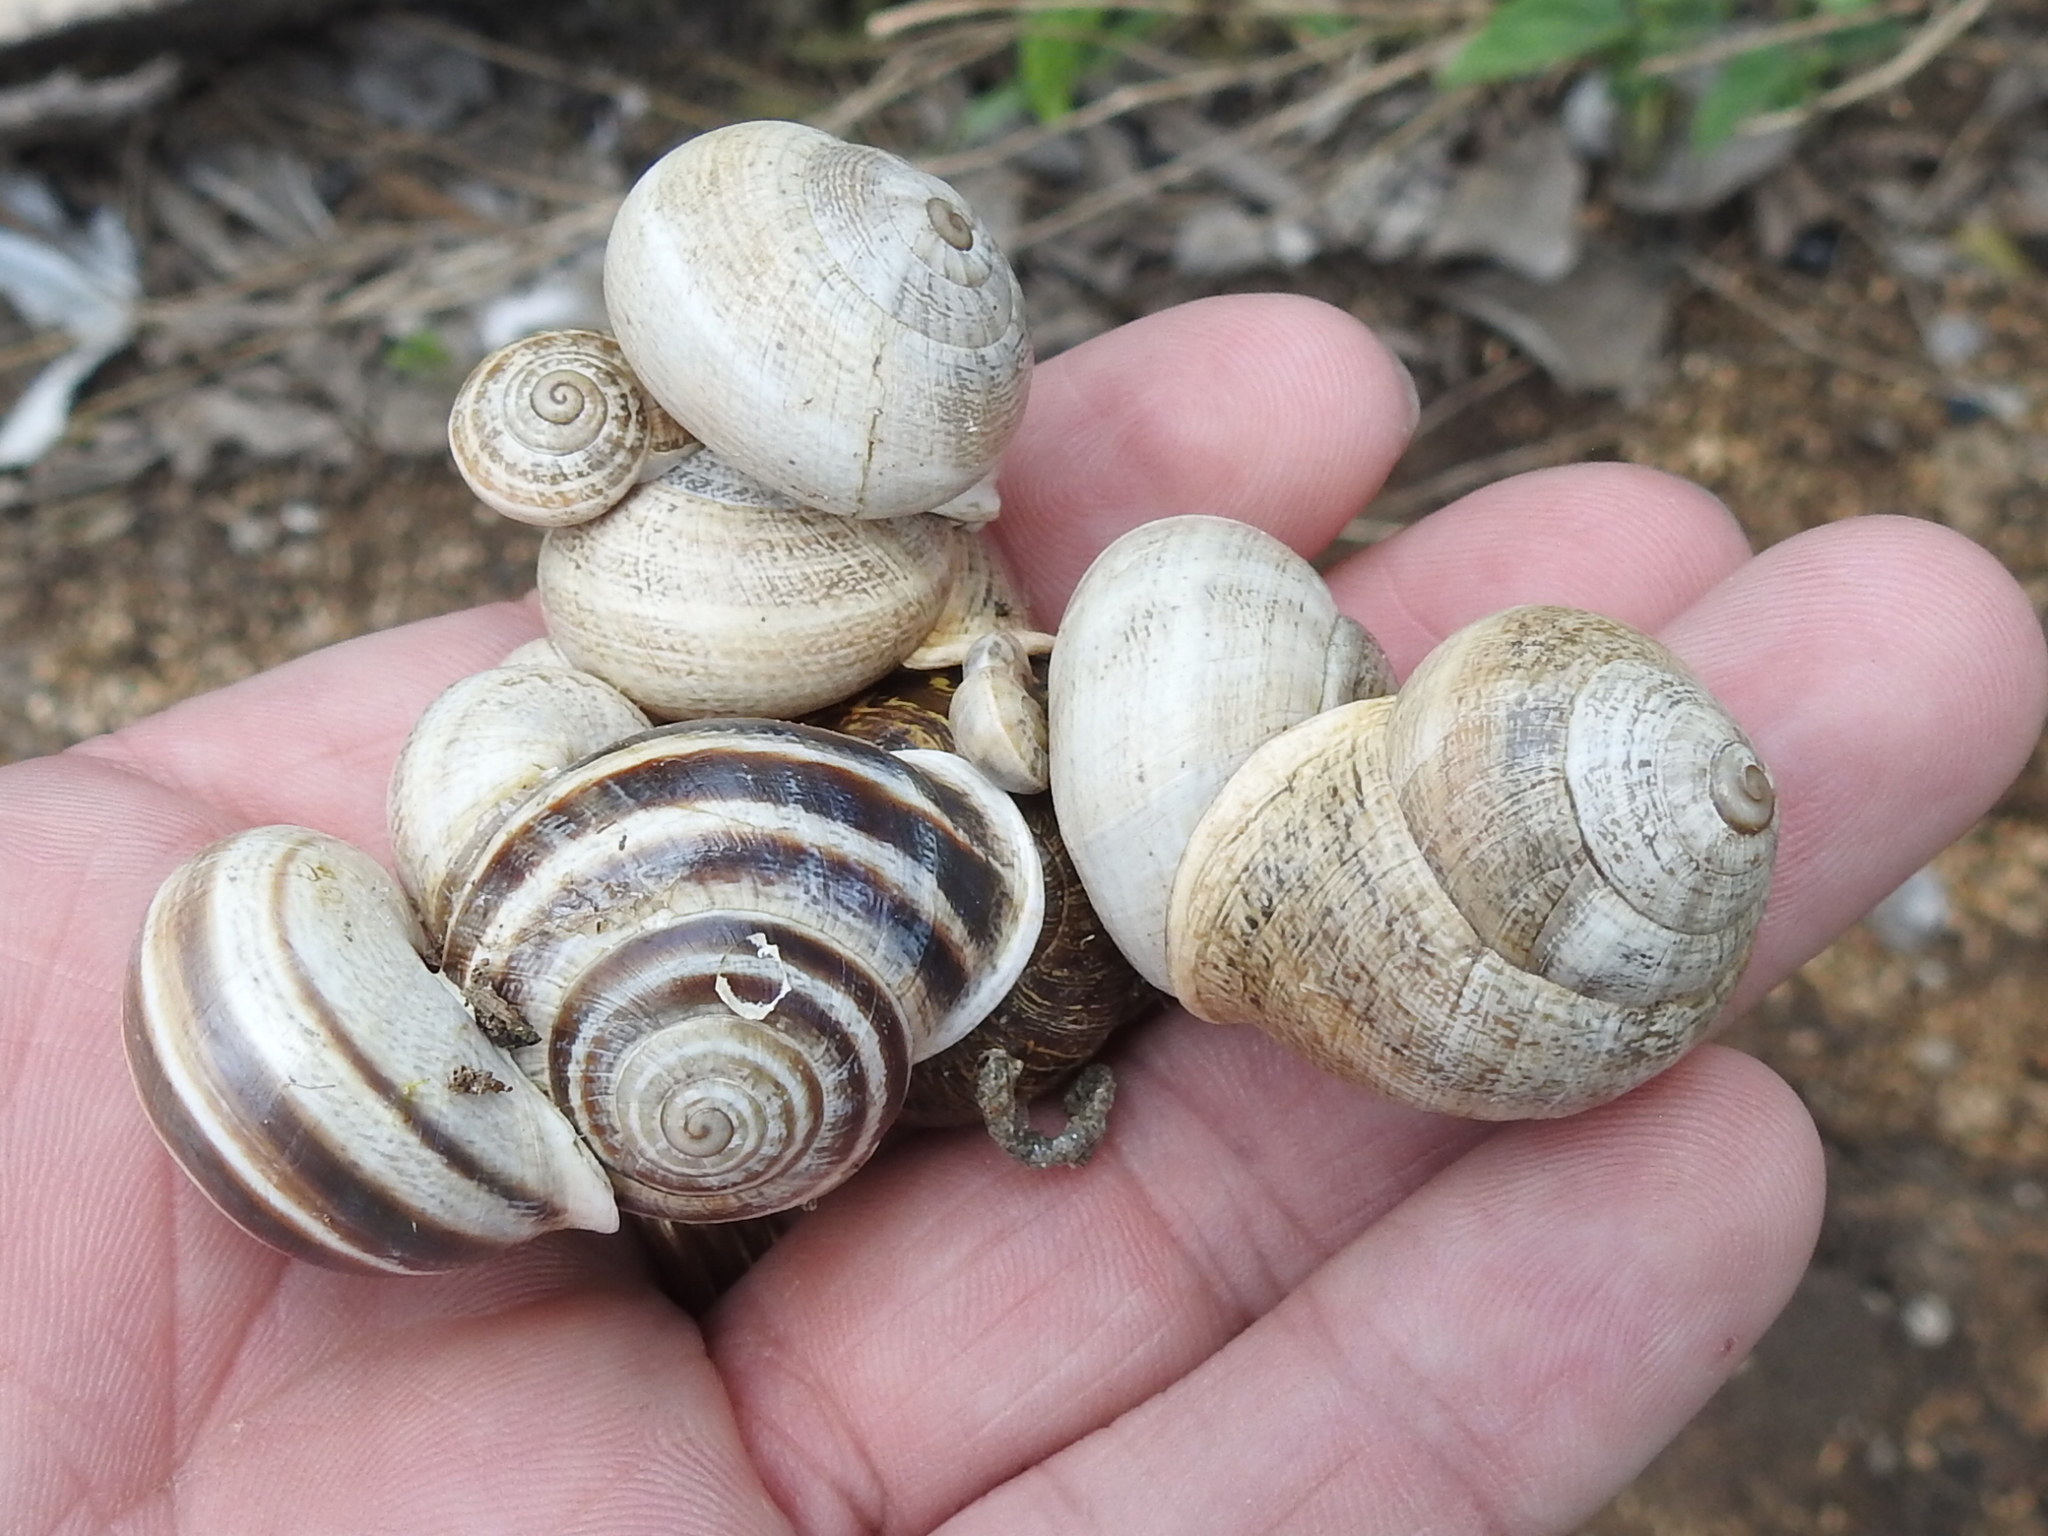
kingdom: Animalia
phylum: Mollusca
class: Gastropoda
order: Stylommatophora
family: Helicidae
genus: Otala
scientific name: Otala lactea
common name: Milk snail
